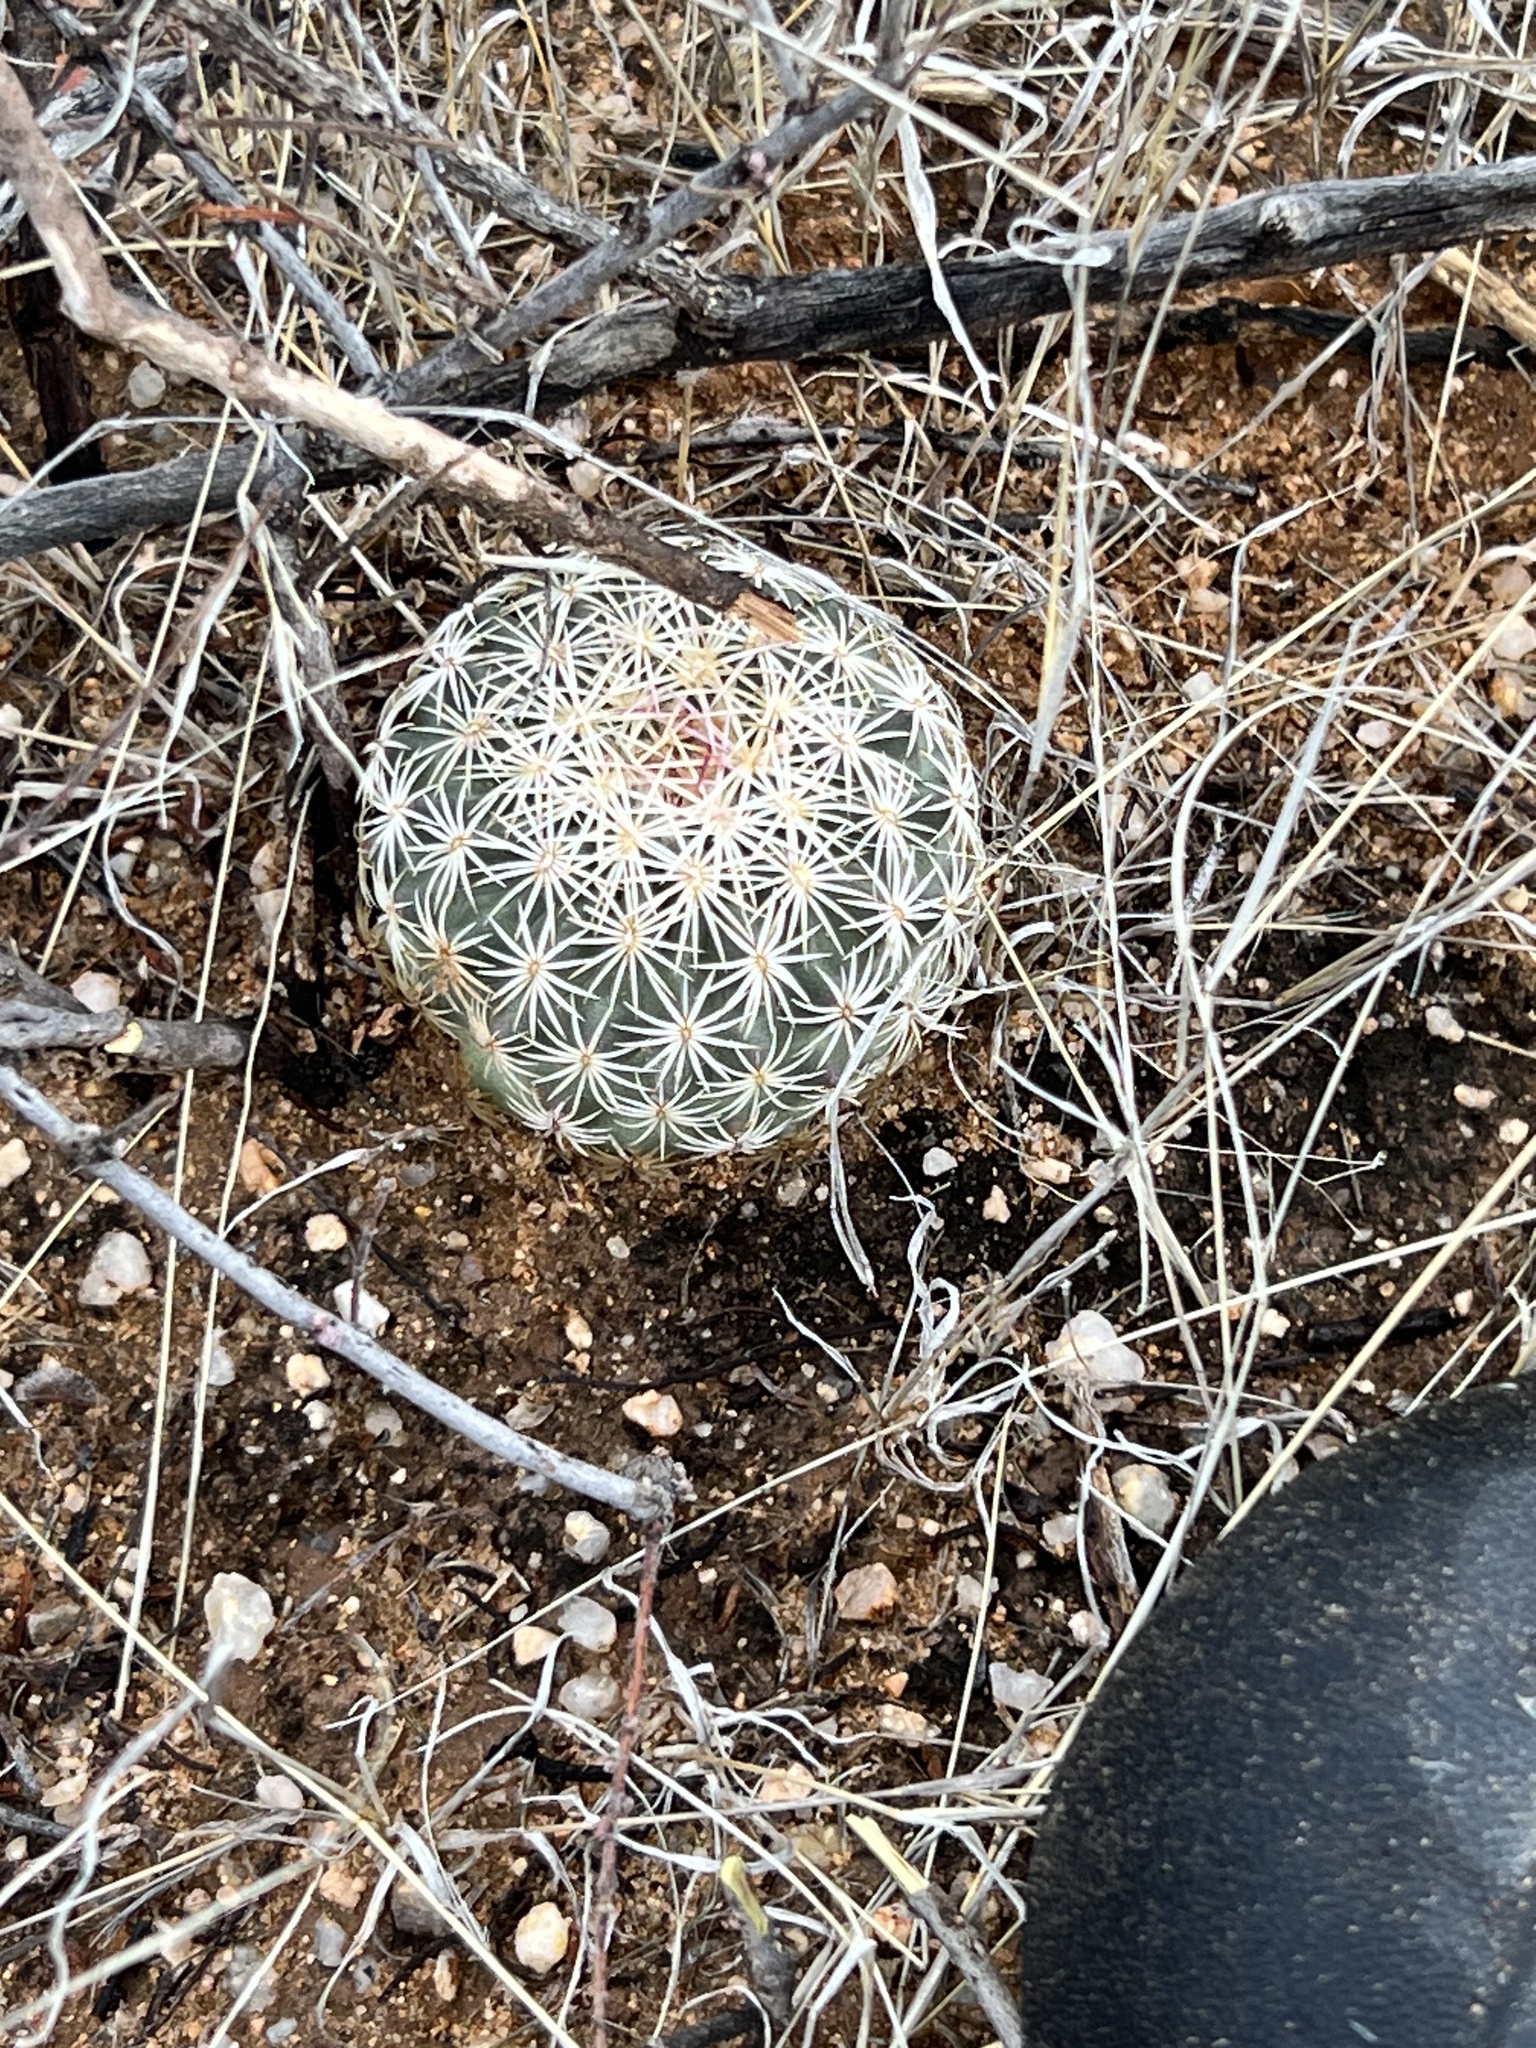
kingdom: Plantae
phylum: Tracheophyta
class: Magnoliopsida
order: Caryophyllales
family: Cactaceae
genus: Sclerocactus
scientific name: Sclerocactus johnsonii
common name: Eight-spine fishhook cactus
